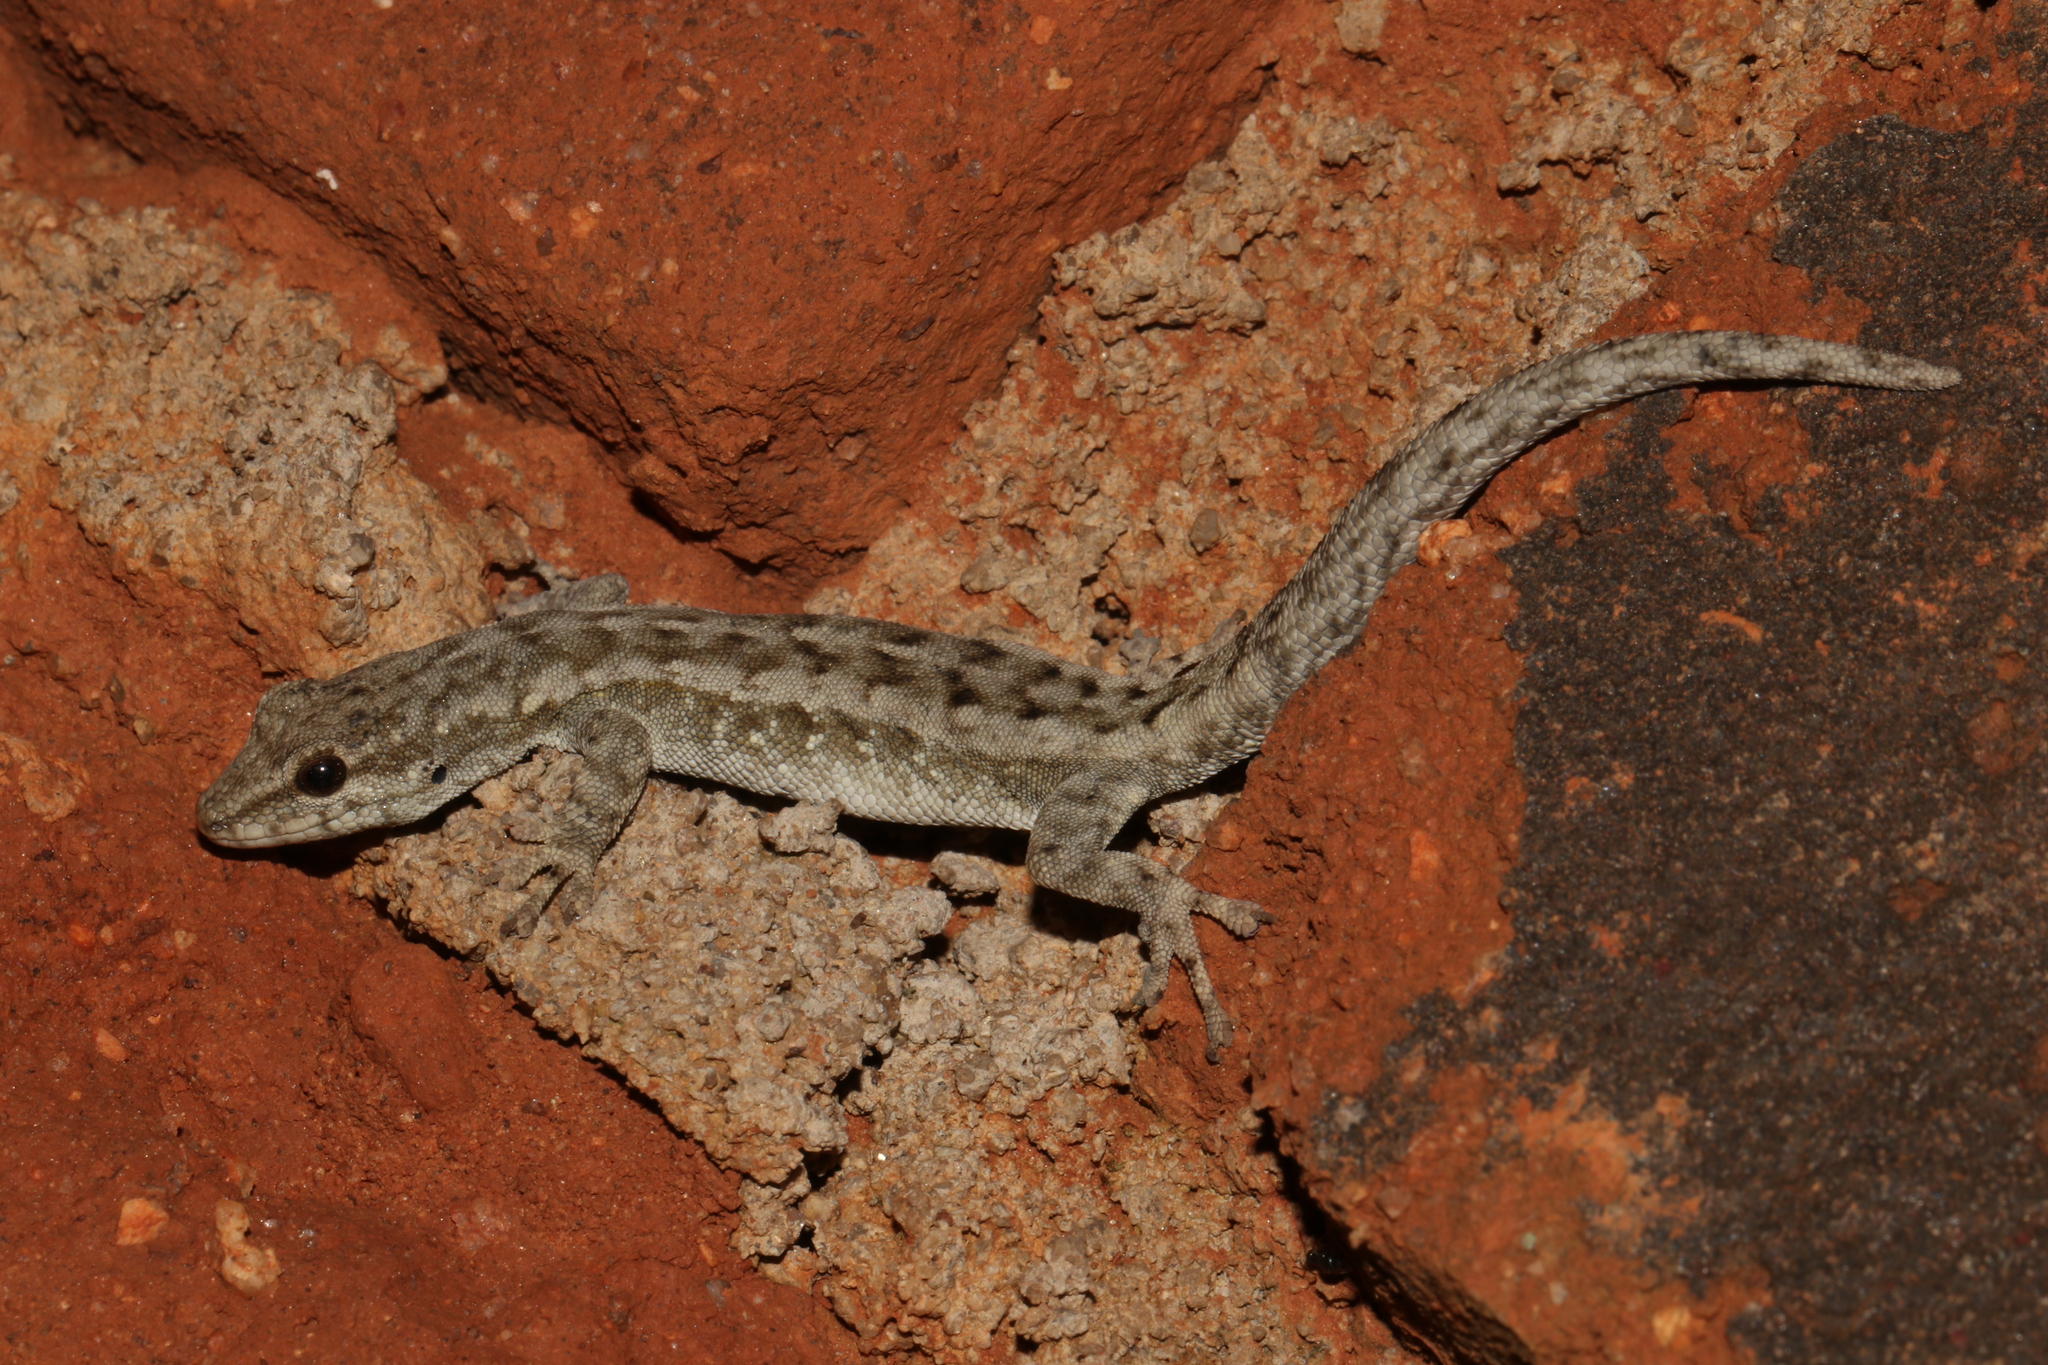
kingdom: Animalia
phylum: Chordata
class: Squamata
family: Gekkonidae
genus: Lygodactylus
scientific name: Lygodactylus angularis
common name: Angulate dwarf gecko
